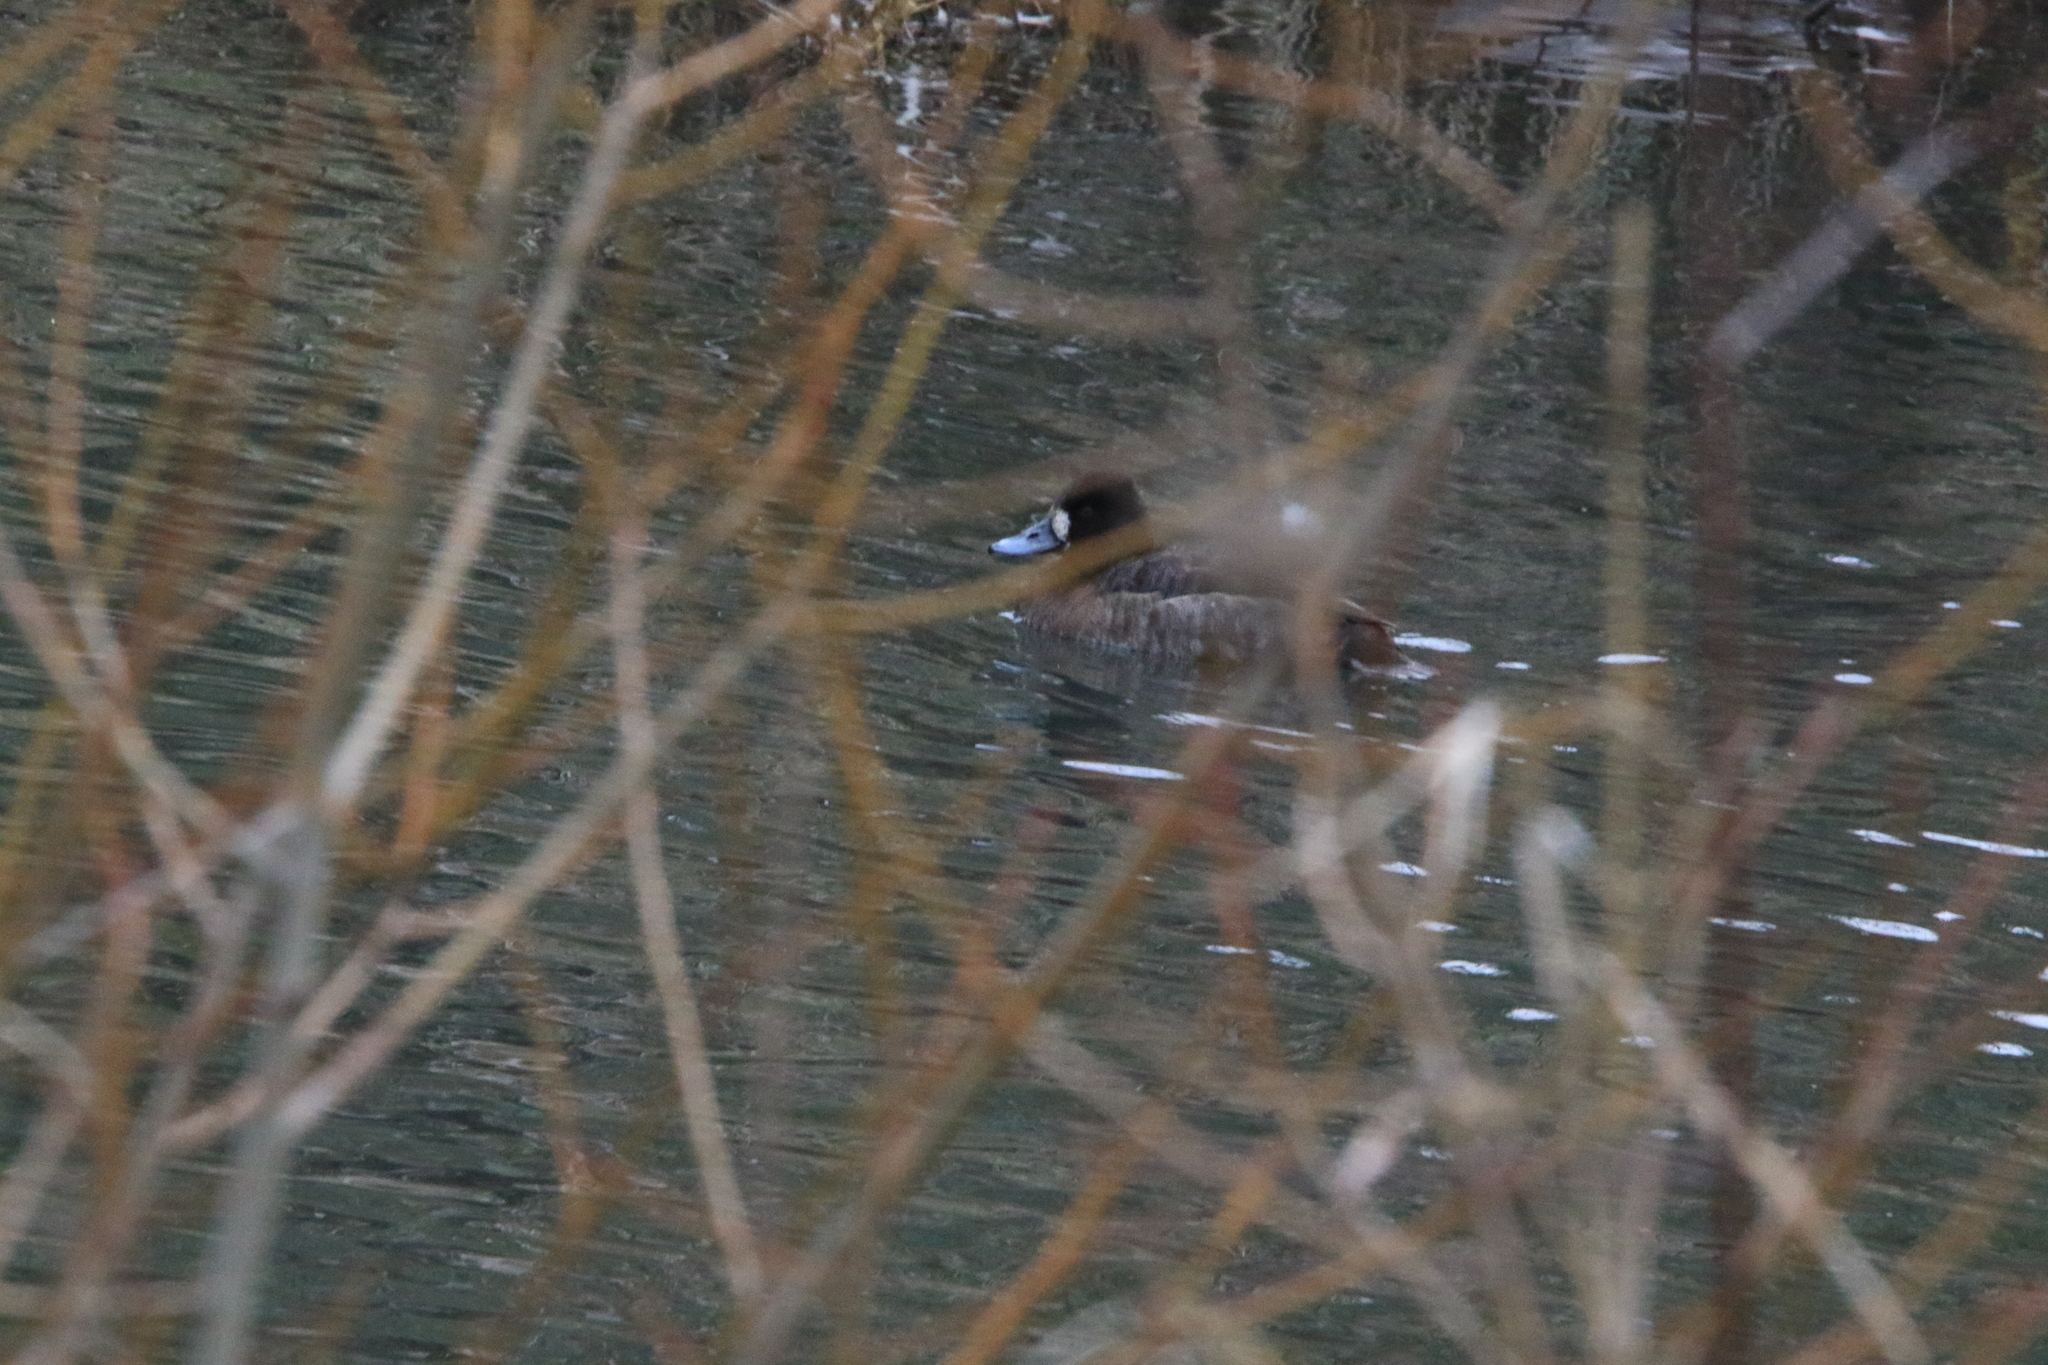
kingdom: Animalia
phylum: Chordata
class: Aves
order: Anseriformes
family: Anatidae
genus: Aythya
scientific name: Aythya affinis
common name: Lesser scaup
